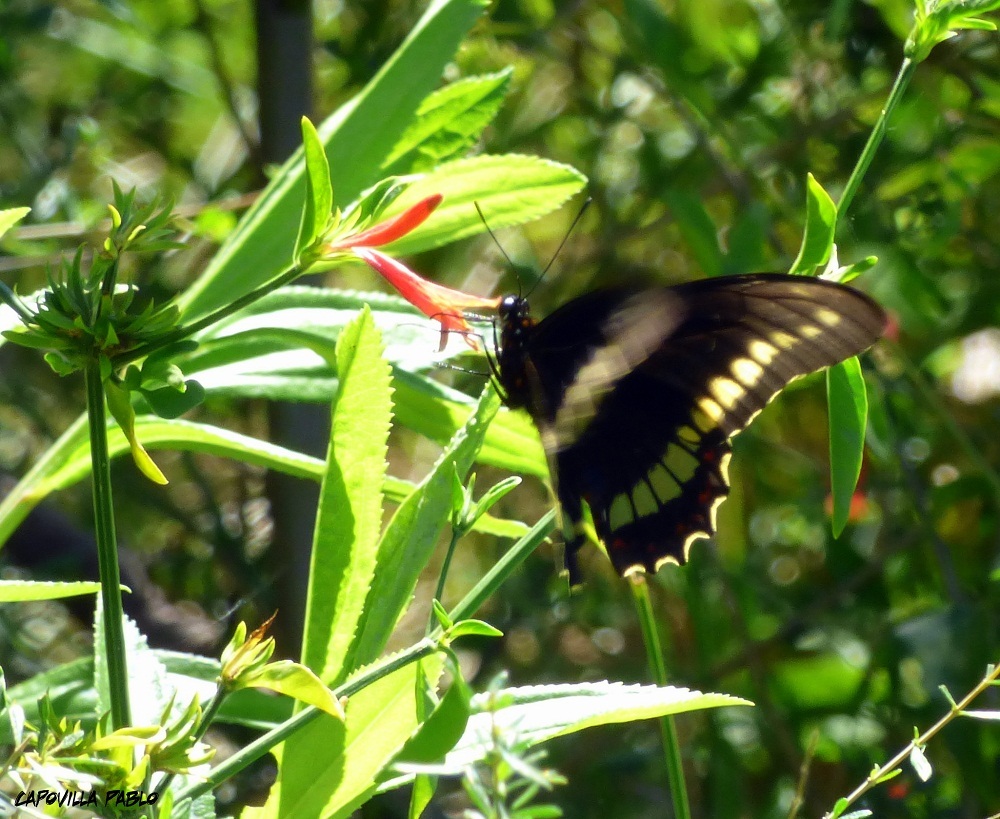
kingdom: Animalia
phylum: Arthropoda
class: Insecta
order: Lepidoptera
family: Papilionidae
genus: Battus
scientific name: Battus polydamas
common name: Polydamas swallowtail
